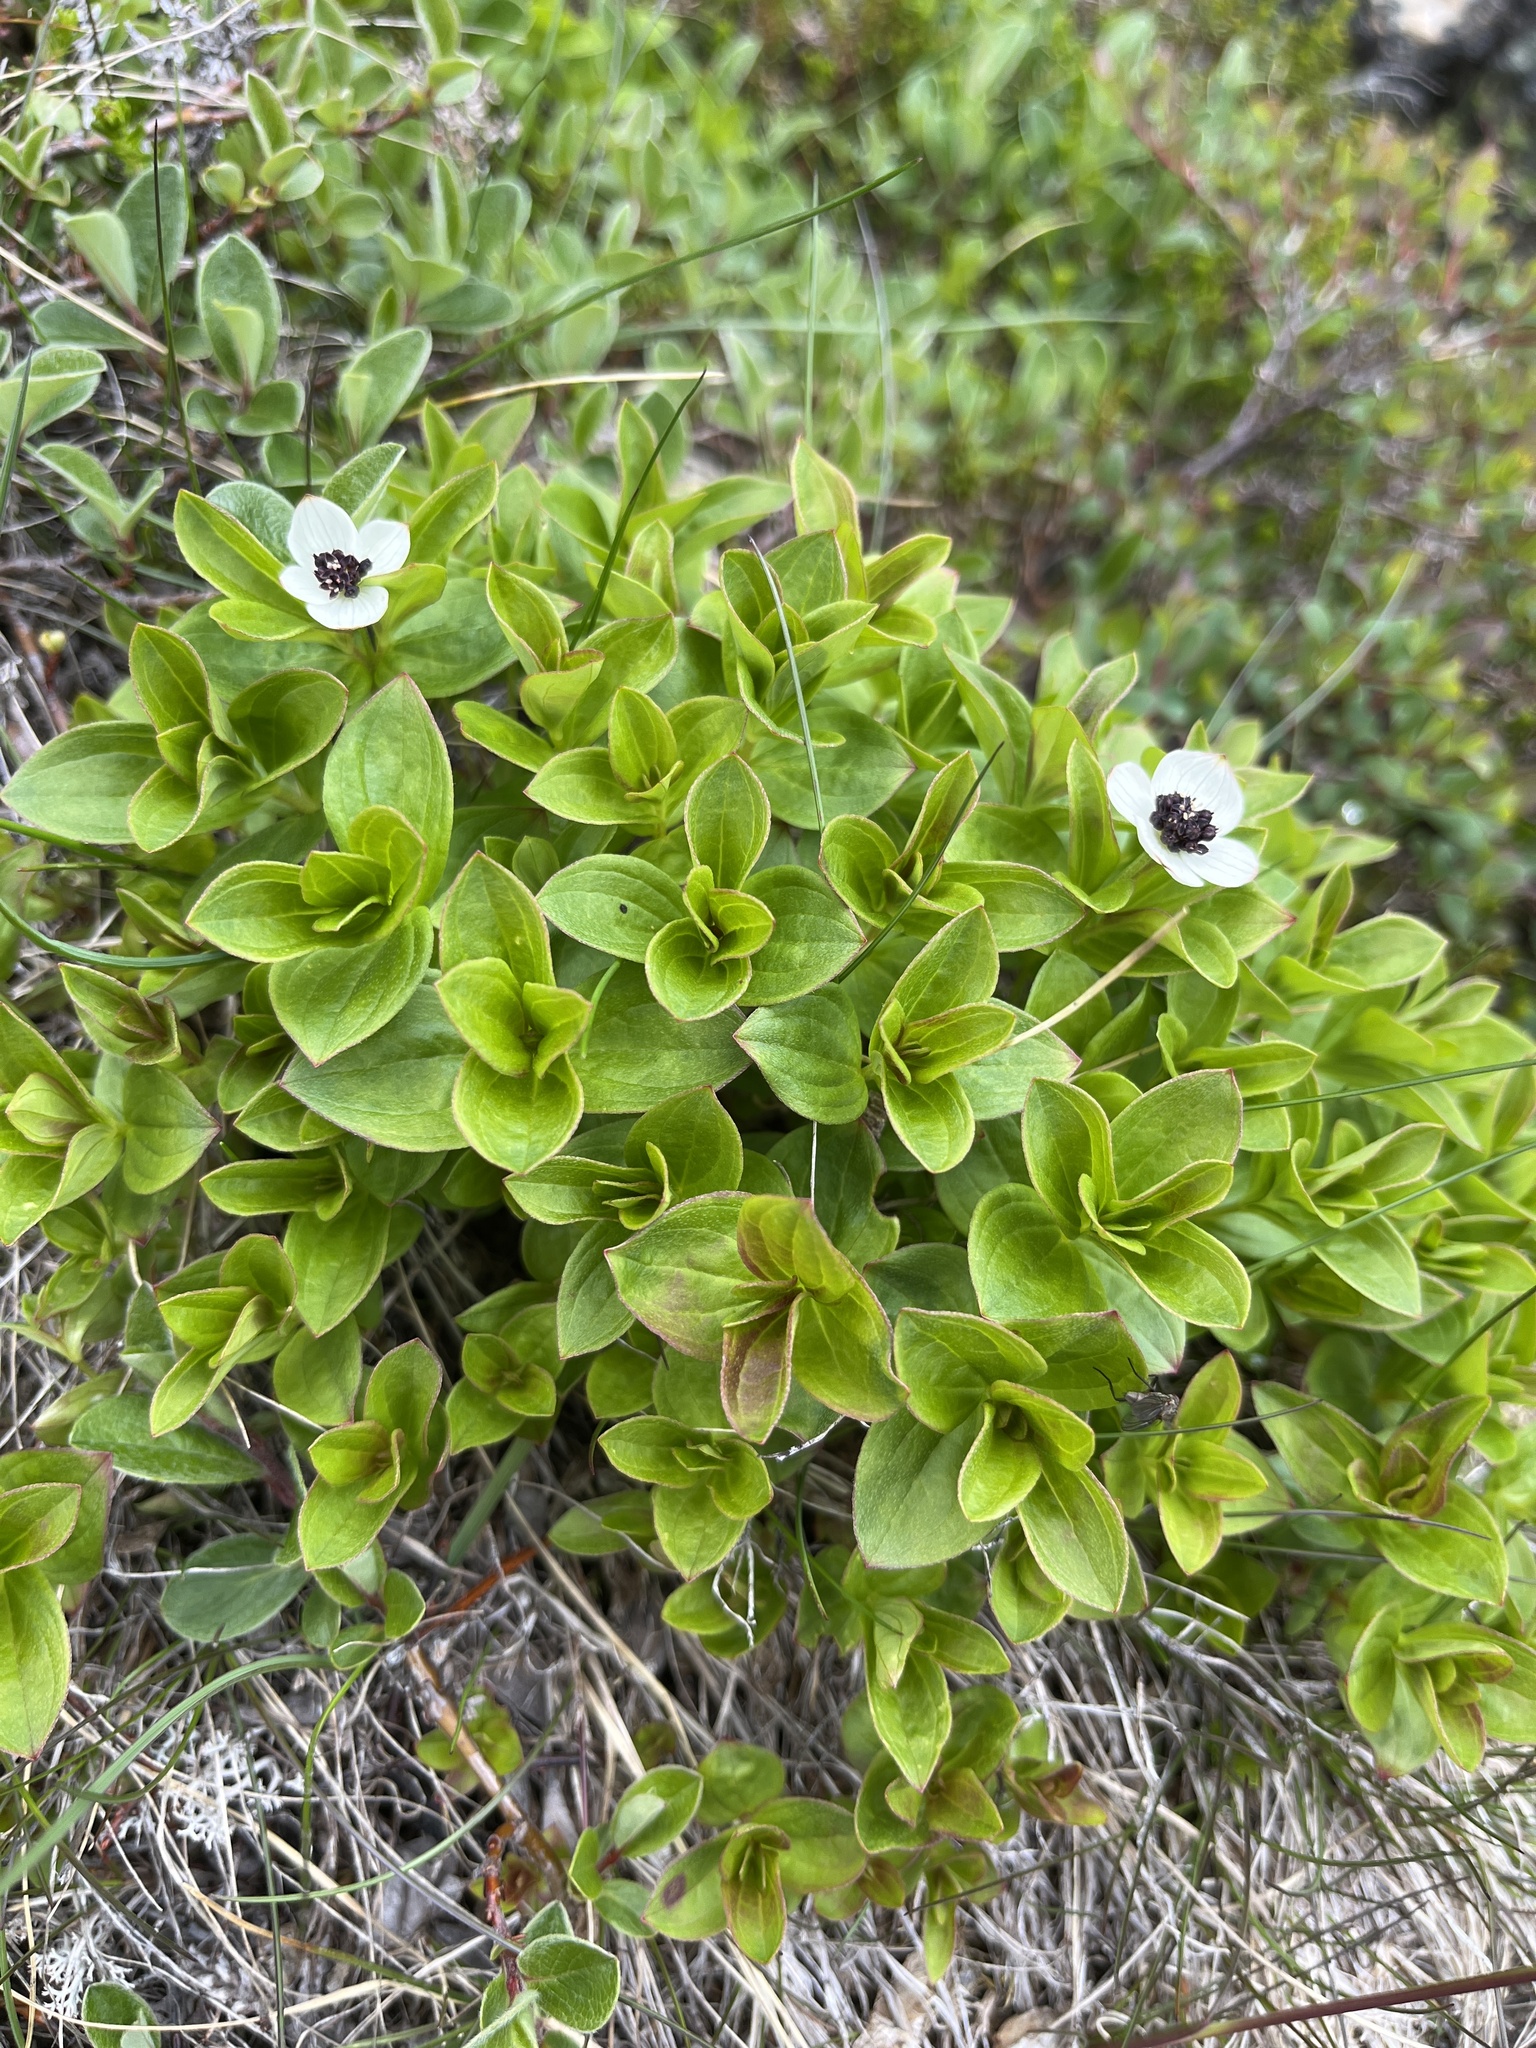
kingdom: Plantae
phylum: Tracheophyta
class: Magnoliopsida
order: Cornales
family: Cornaceae
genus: Cornus
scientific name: Cornus suecica
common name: Dwarf cornel
